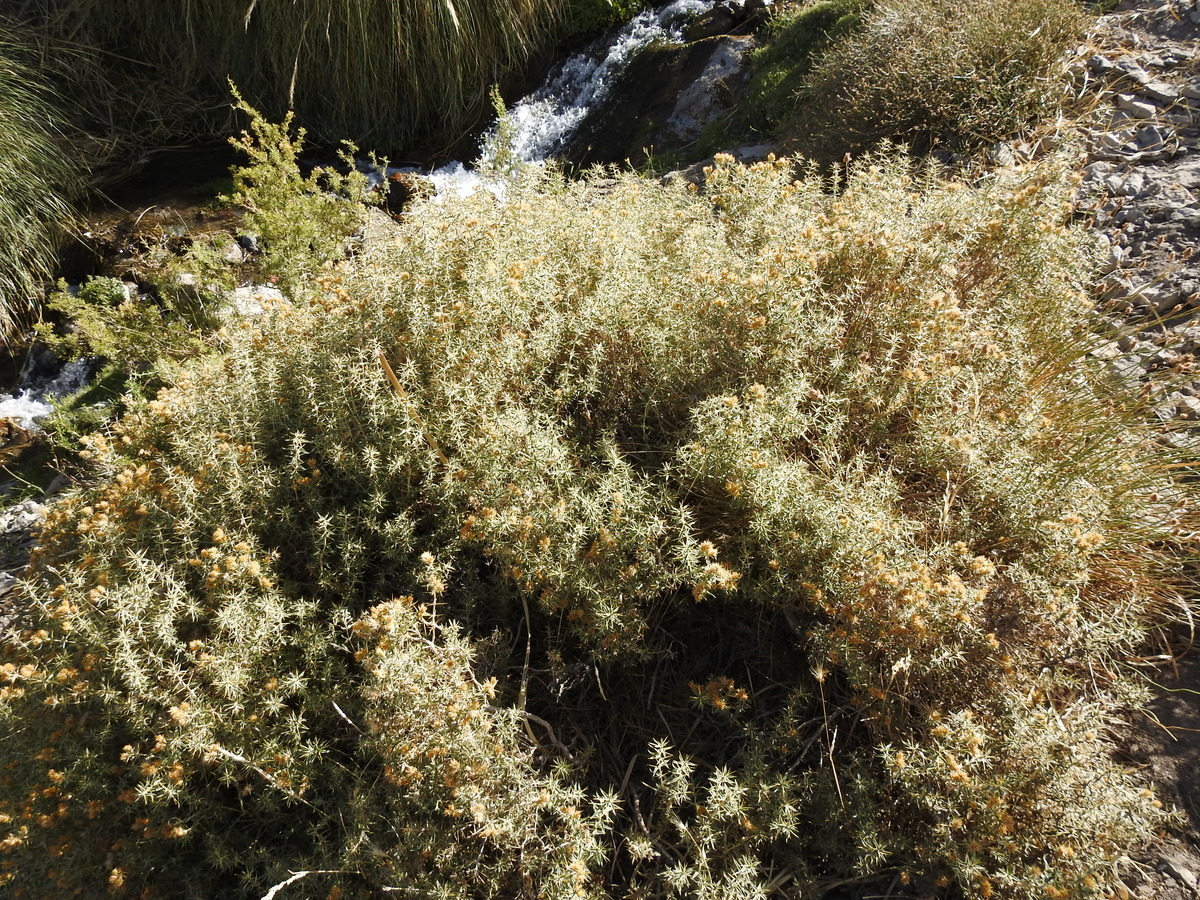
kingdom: Plantae
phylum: Tracheophyta
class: Magnoliopsida
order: Asterales
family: Asteraceae
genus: Chuquiraga
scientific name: Chuquiraga oppositifolia
